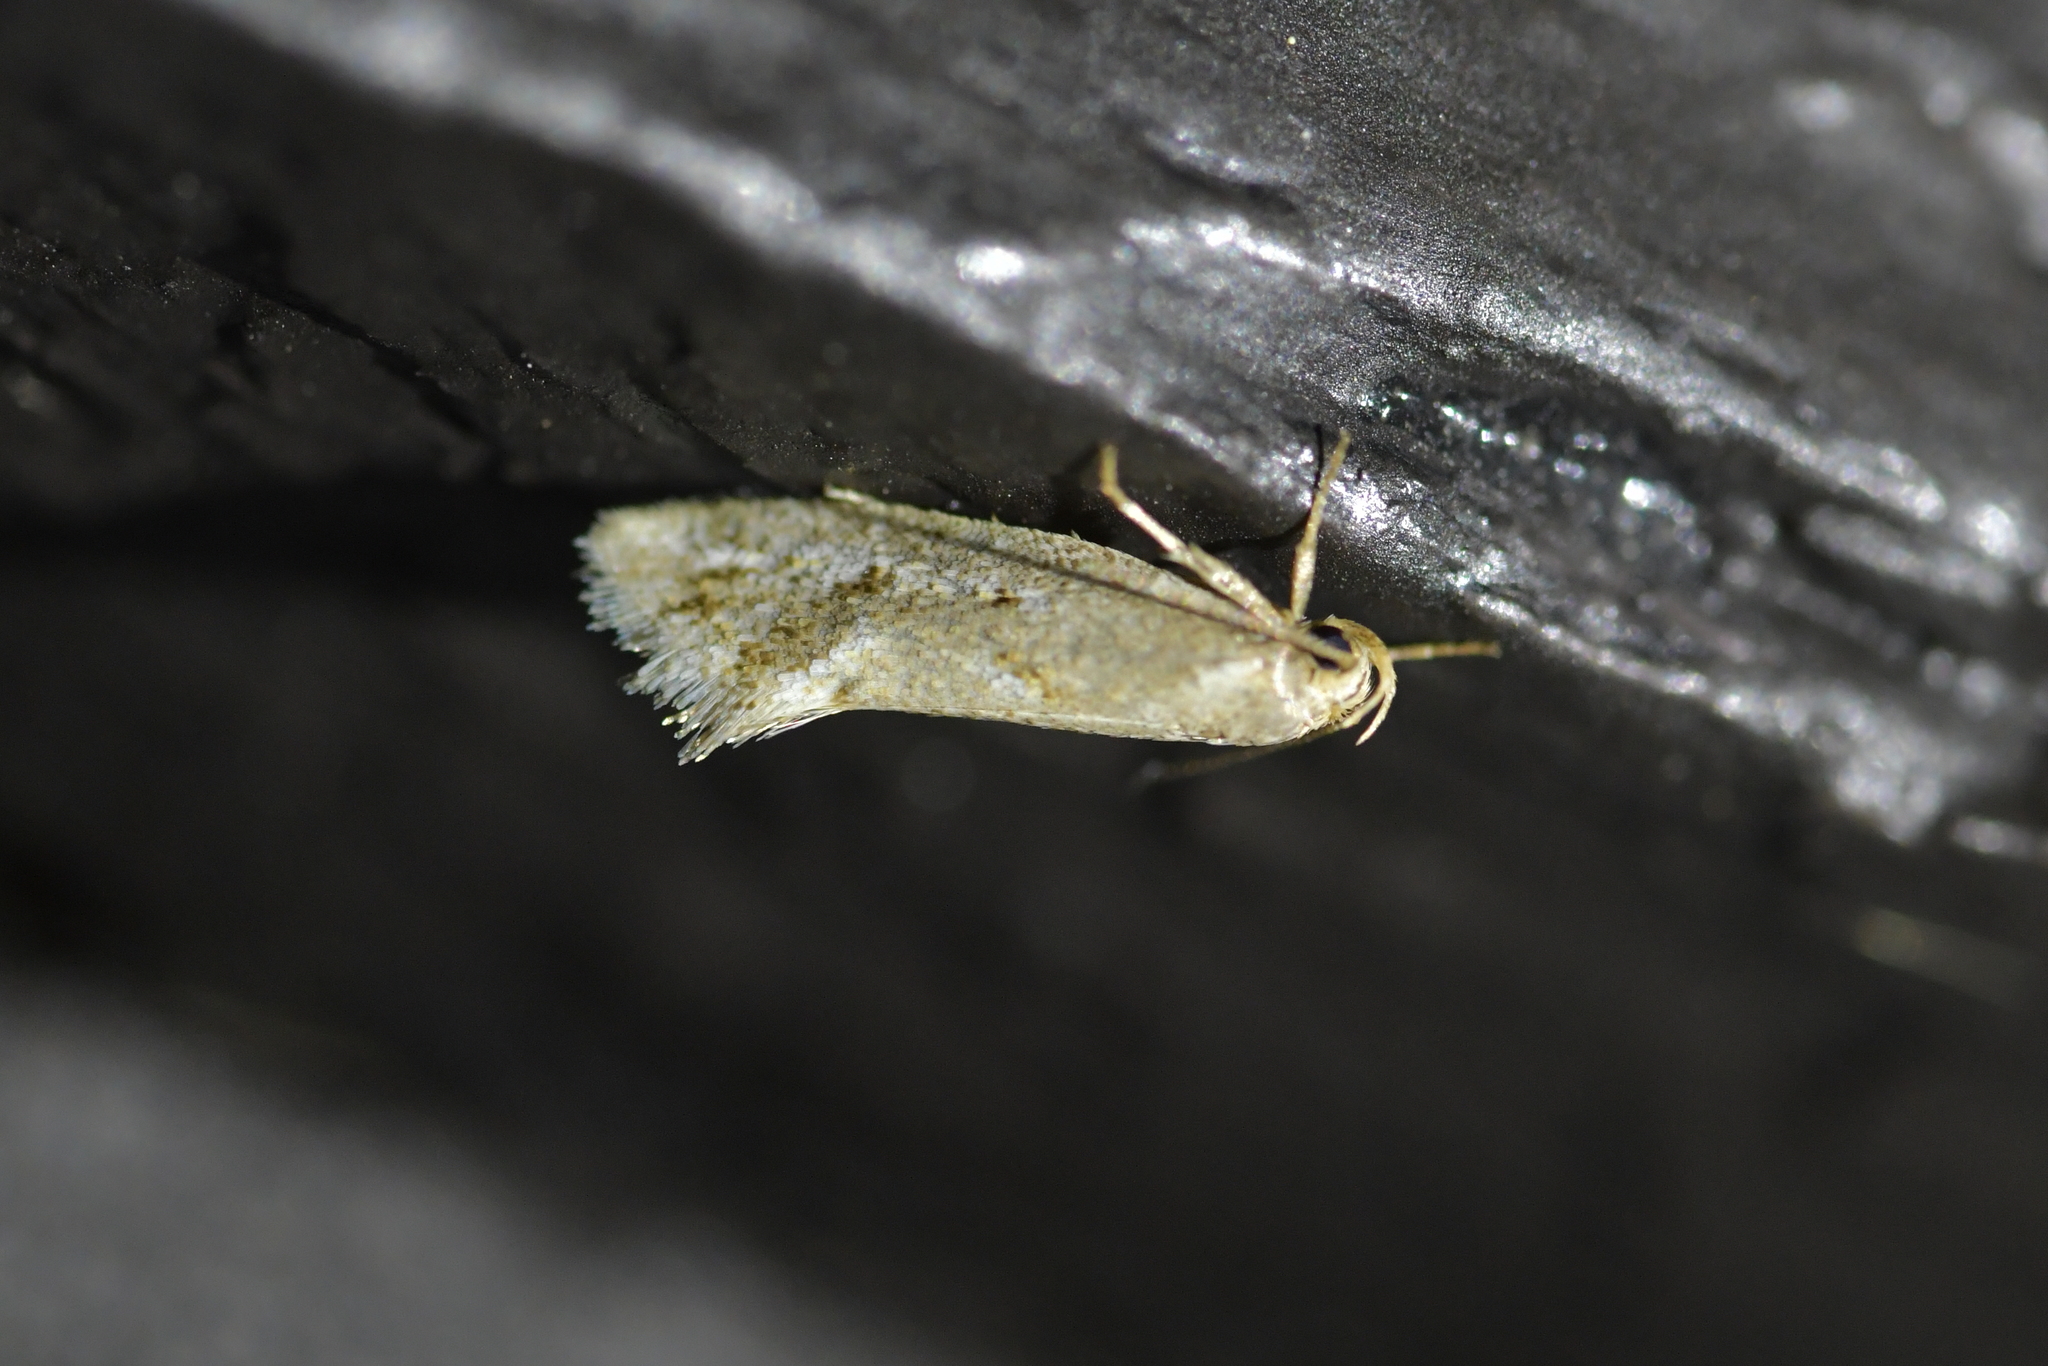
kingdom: Animalia
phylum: Arthropoda
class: Insecta
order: Lepidoptera
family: Oecophoridae
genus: Tingena
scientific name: Tingena hemimochla
